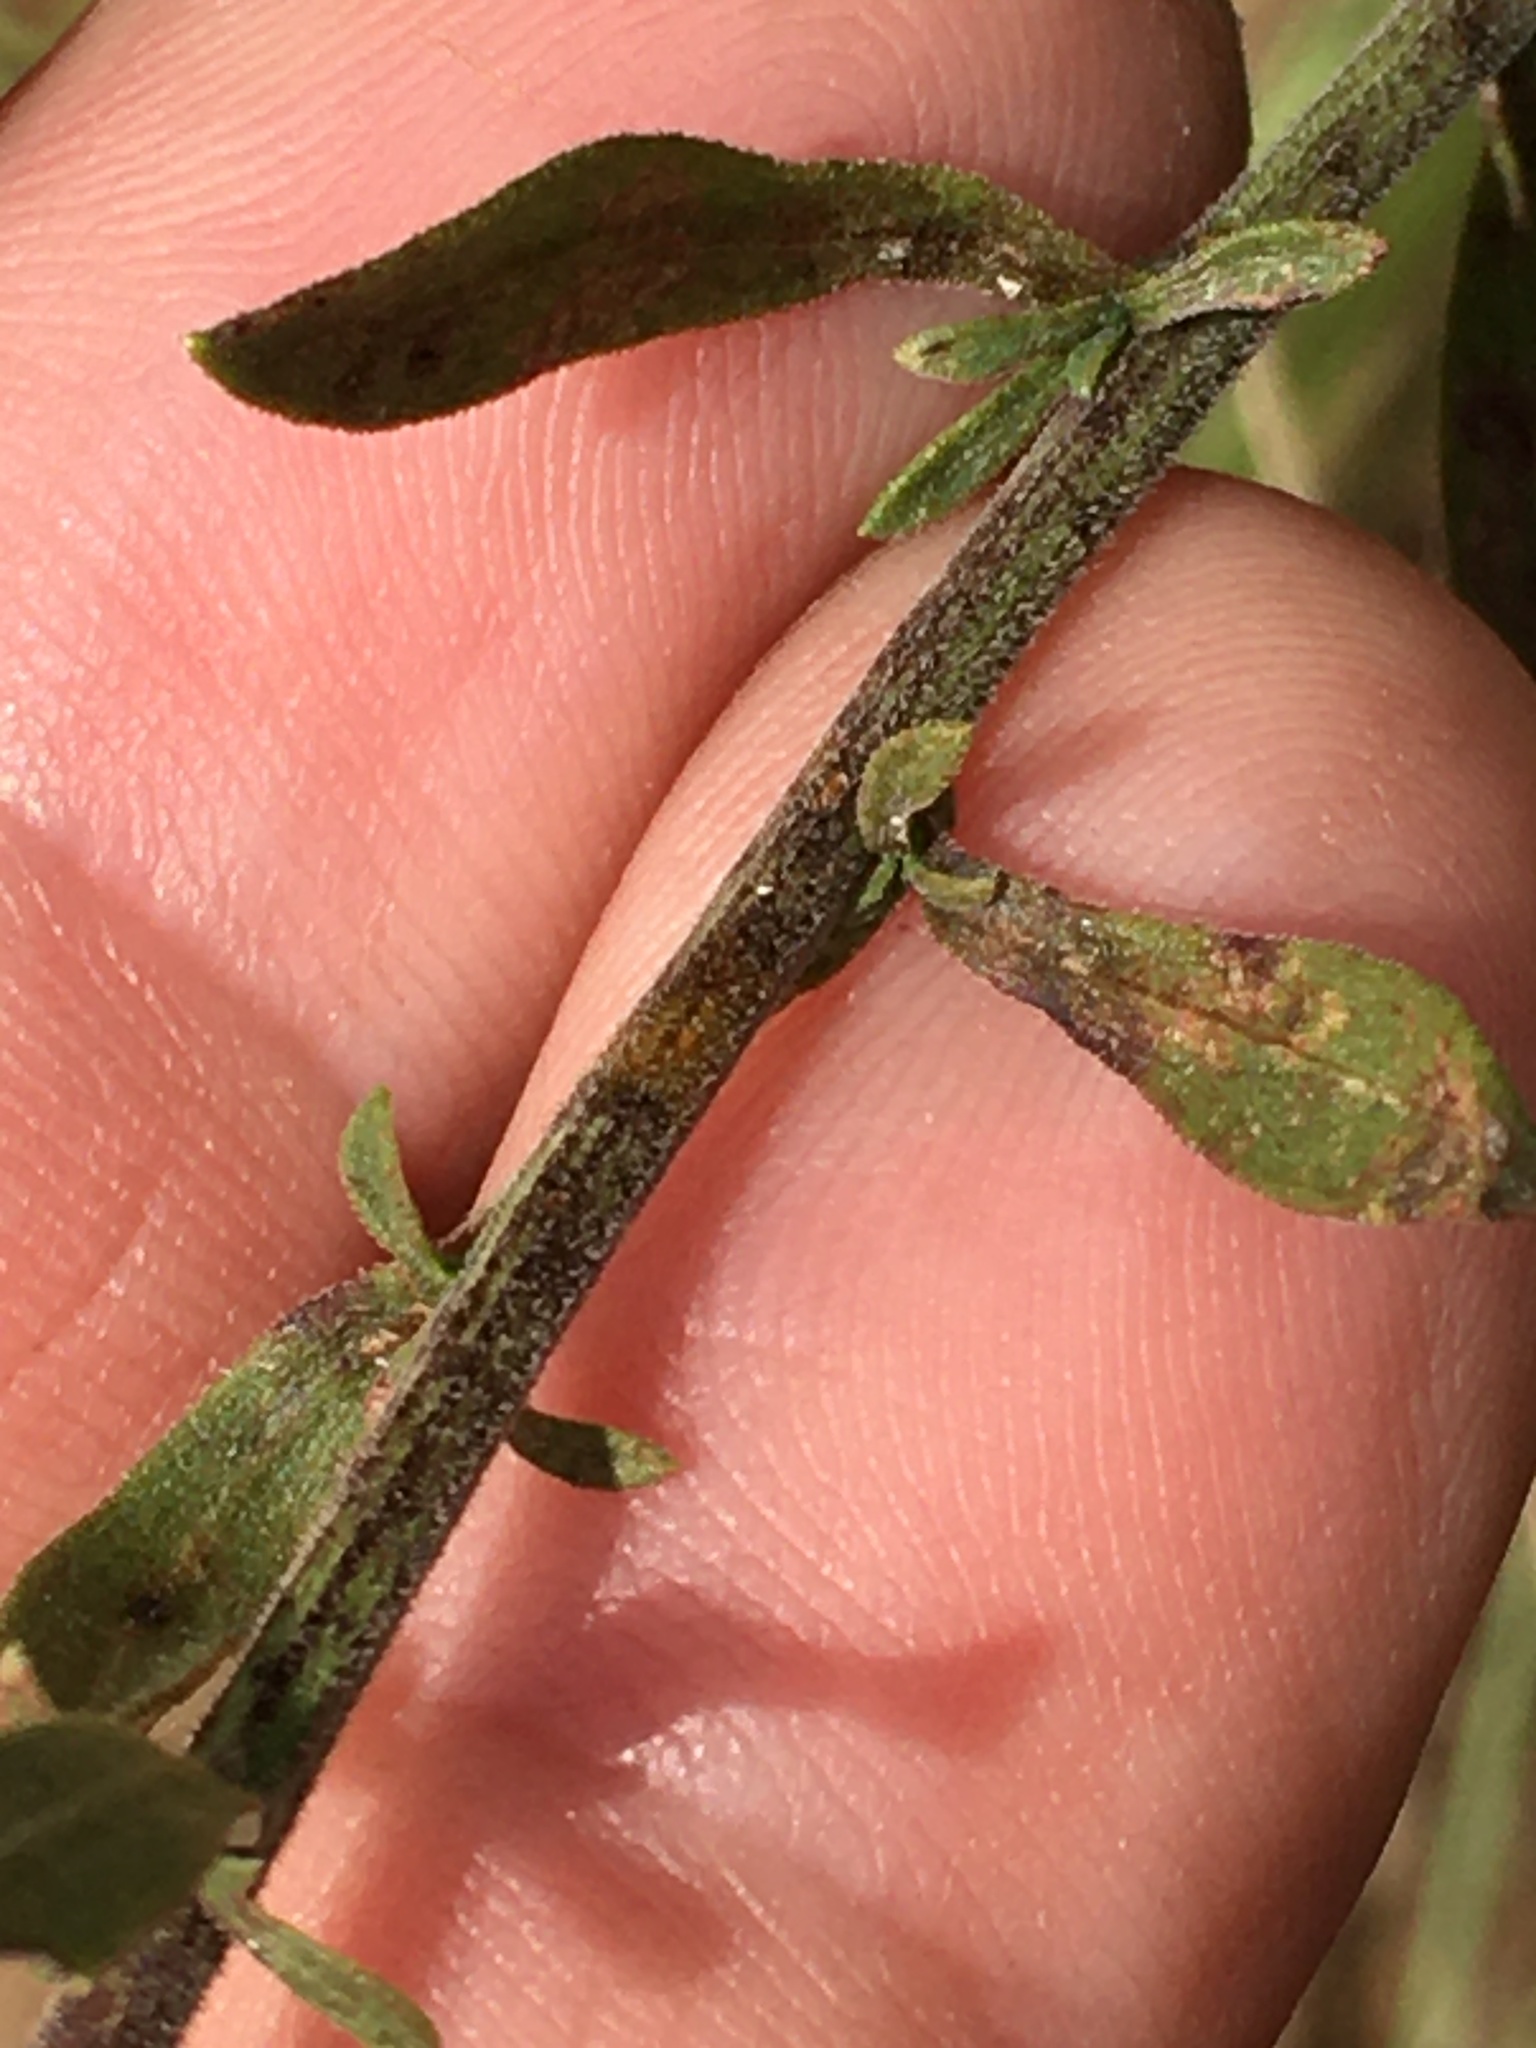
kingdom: Plantae
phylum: Tracheophyta
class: Magnoliopsida
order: Asterales
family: Asteraceae
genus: Solidago
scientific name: Solidago nemoralis
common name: Grey goldenrod
